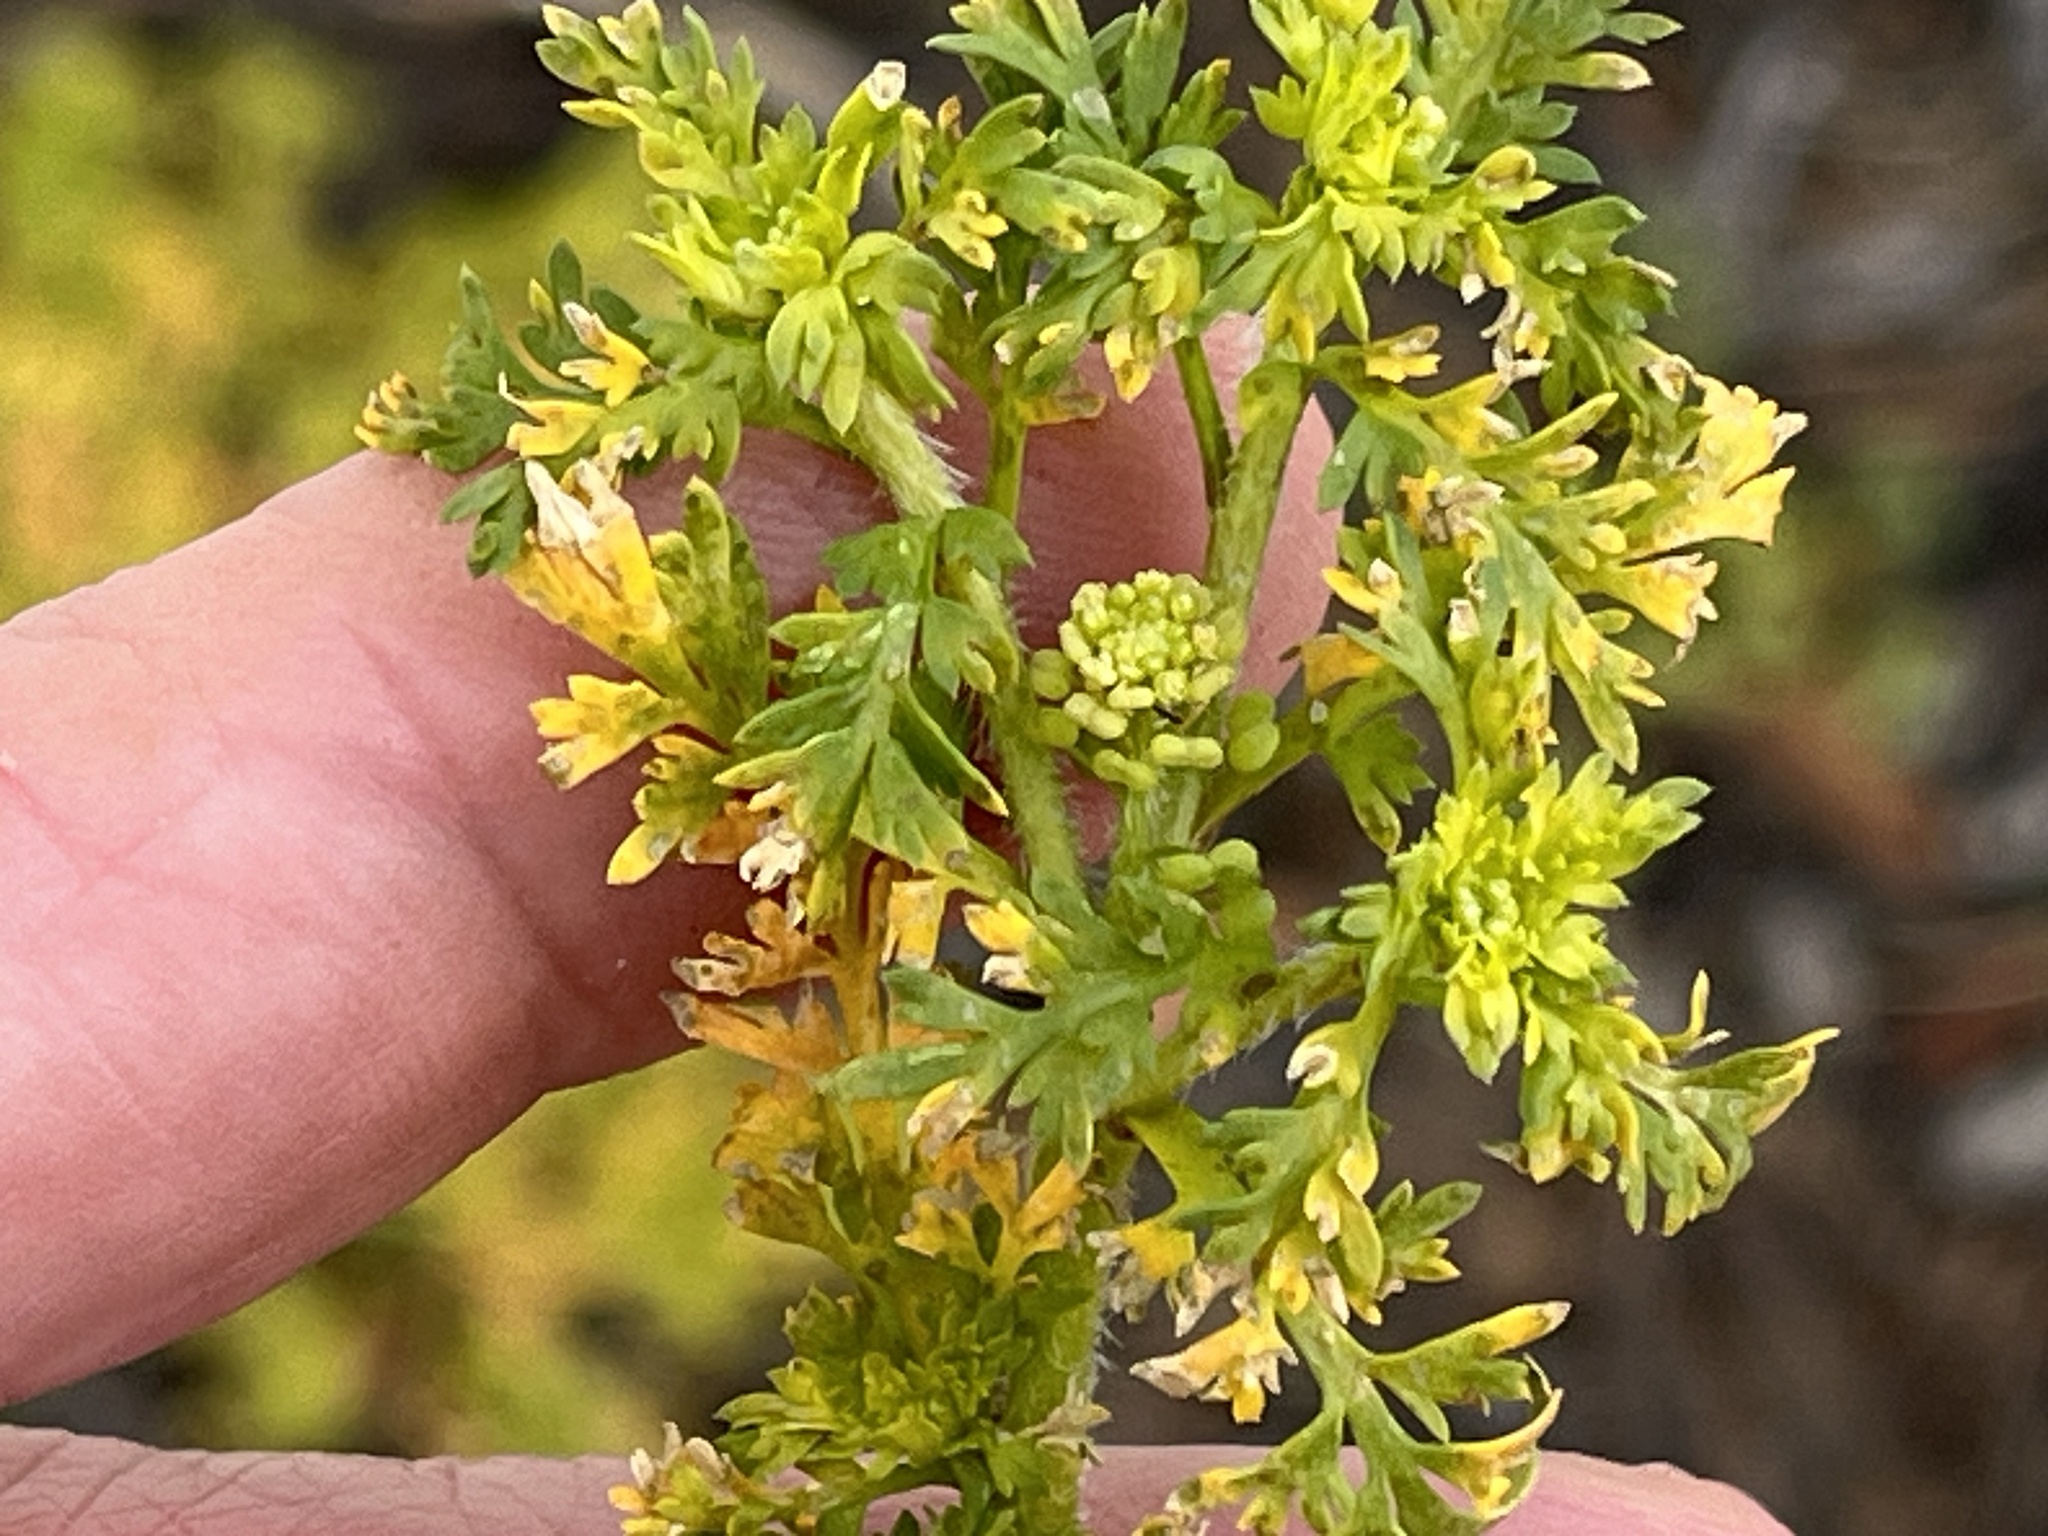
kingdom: Plantae
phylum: Tracheophyta
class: Magnoliopsida
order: Brassicales
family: Brassicaceae
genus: Lepidium
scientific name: Lepidium didymum
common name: Lesser swinecress
